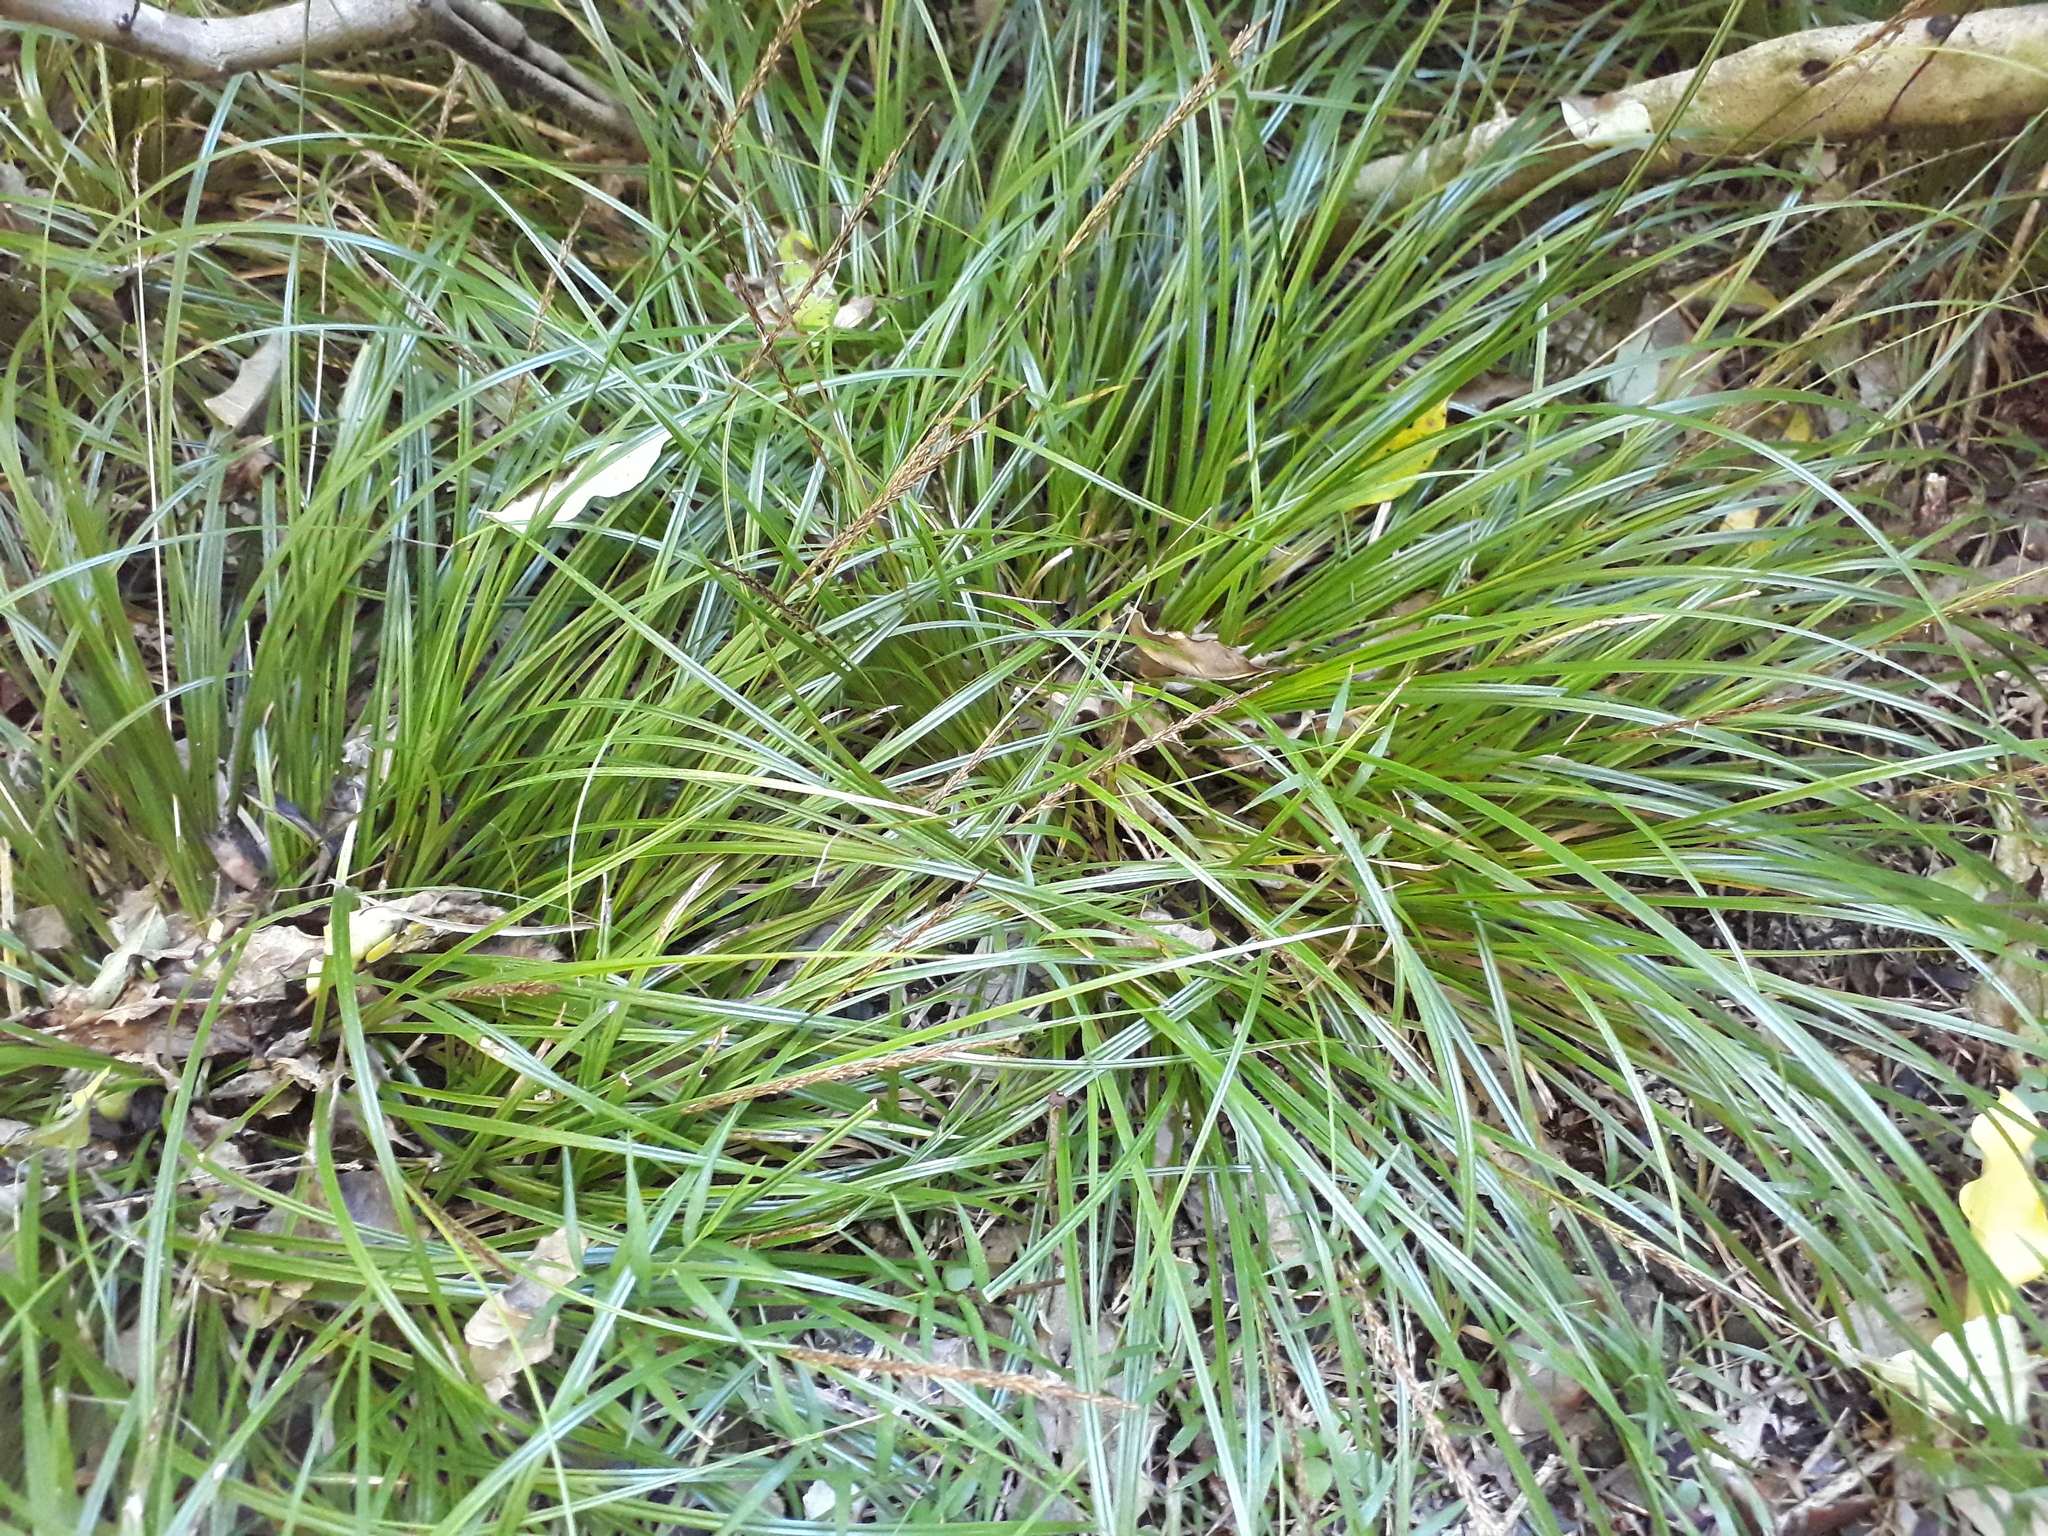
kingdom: Plantae
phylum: Tracheophyta
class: Liliopsida
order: Poales
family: Cyperaceae
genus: Carex
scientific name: Carex uncinata
